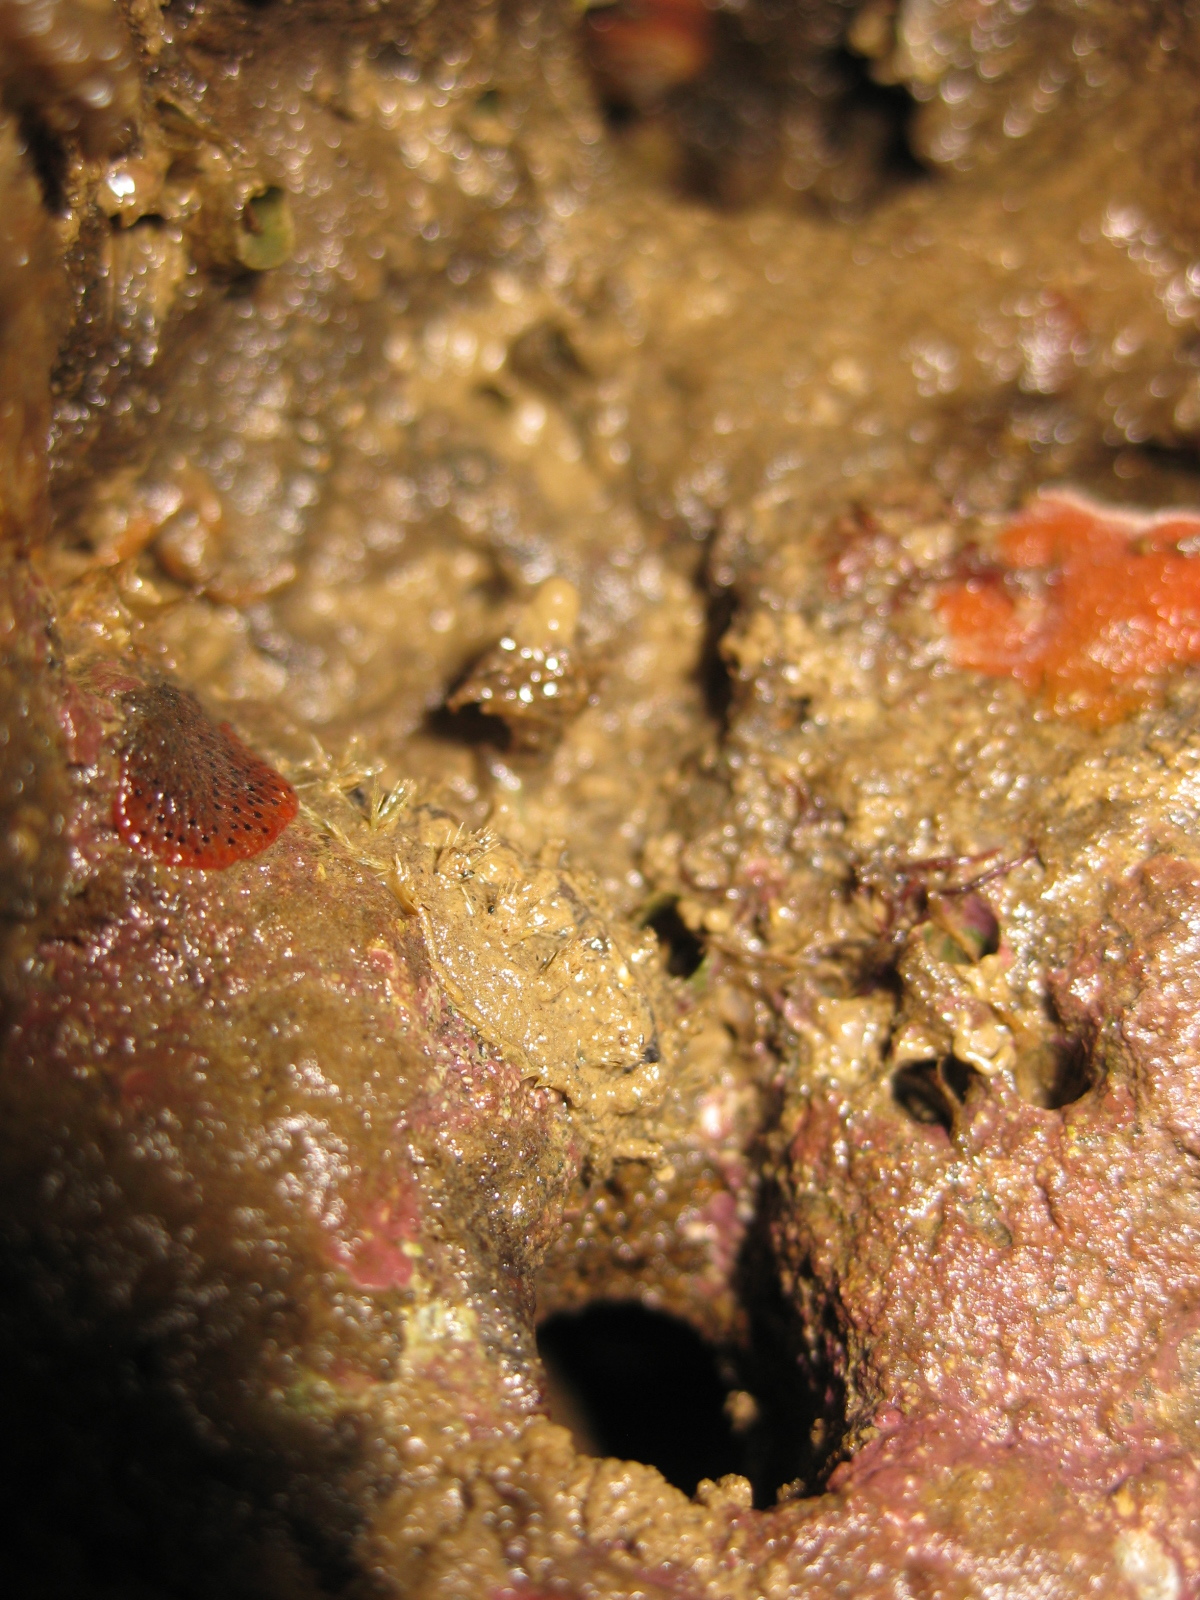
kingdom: Animalia
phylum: Mollusca
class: Polyplacophora
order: Chitonida
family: Acanthochitonidae
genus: Acanthochitona
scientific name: Acanthochitona zelandica
